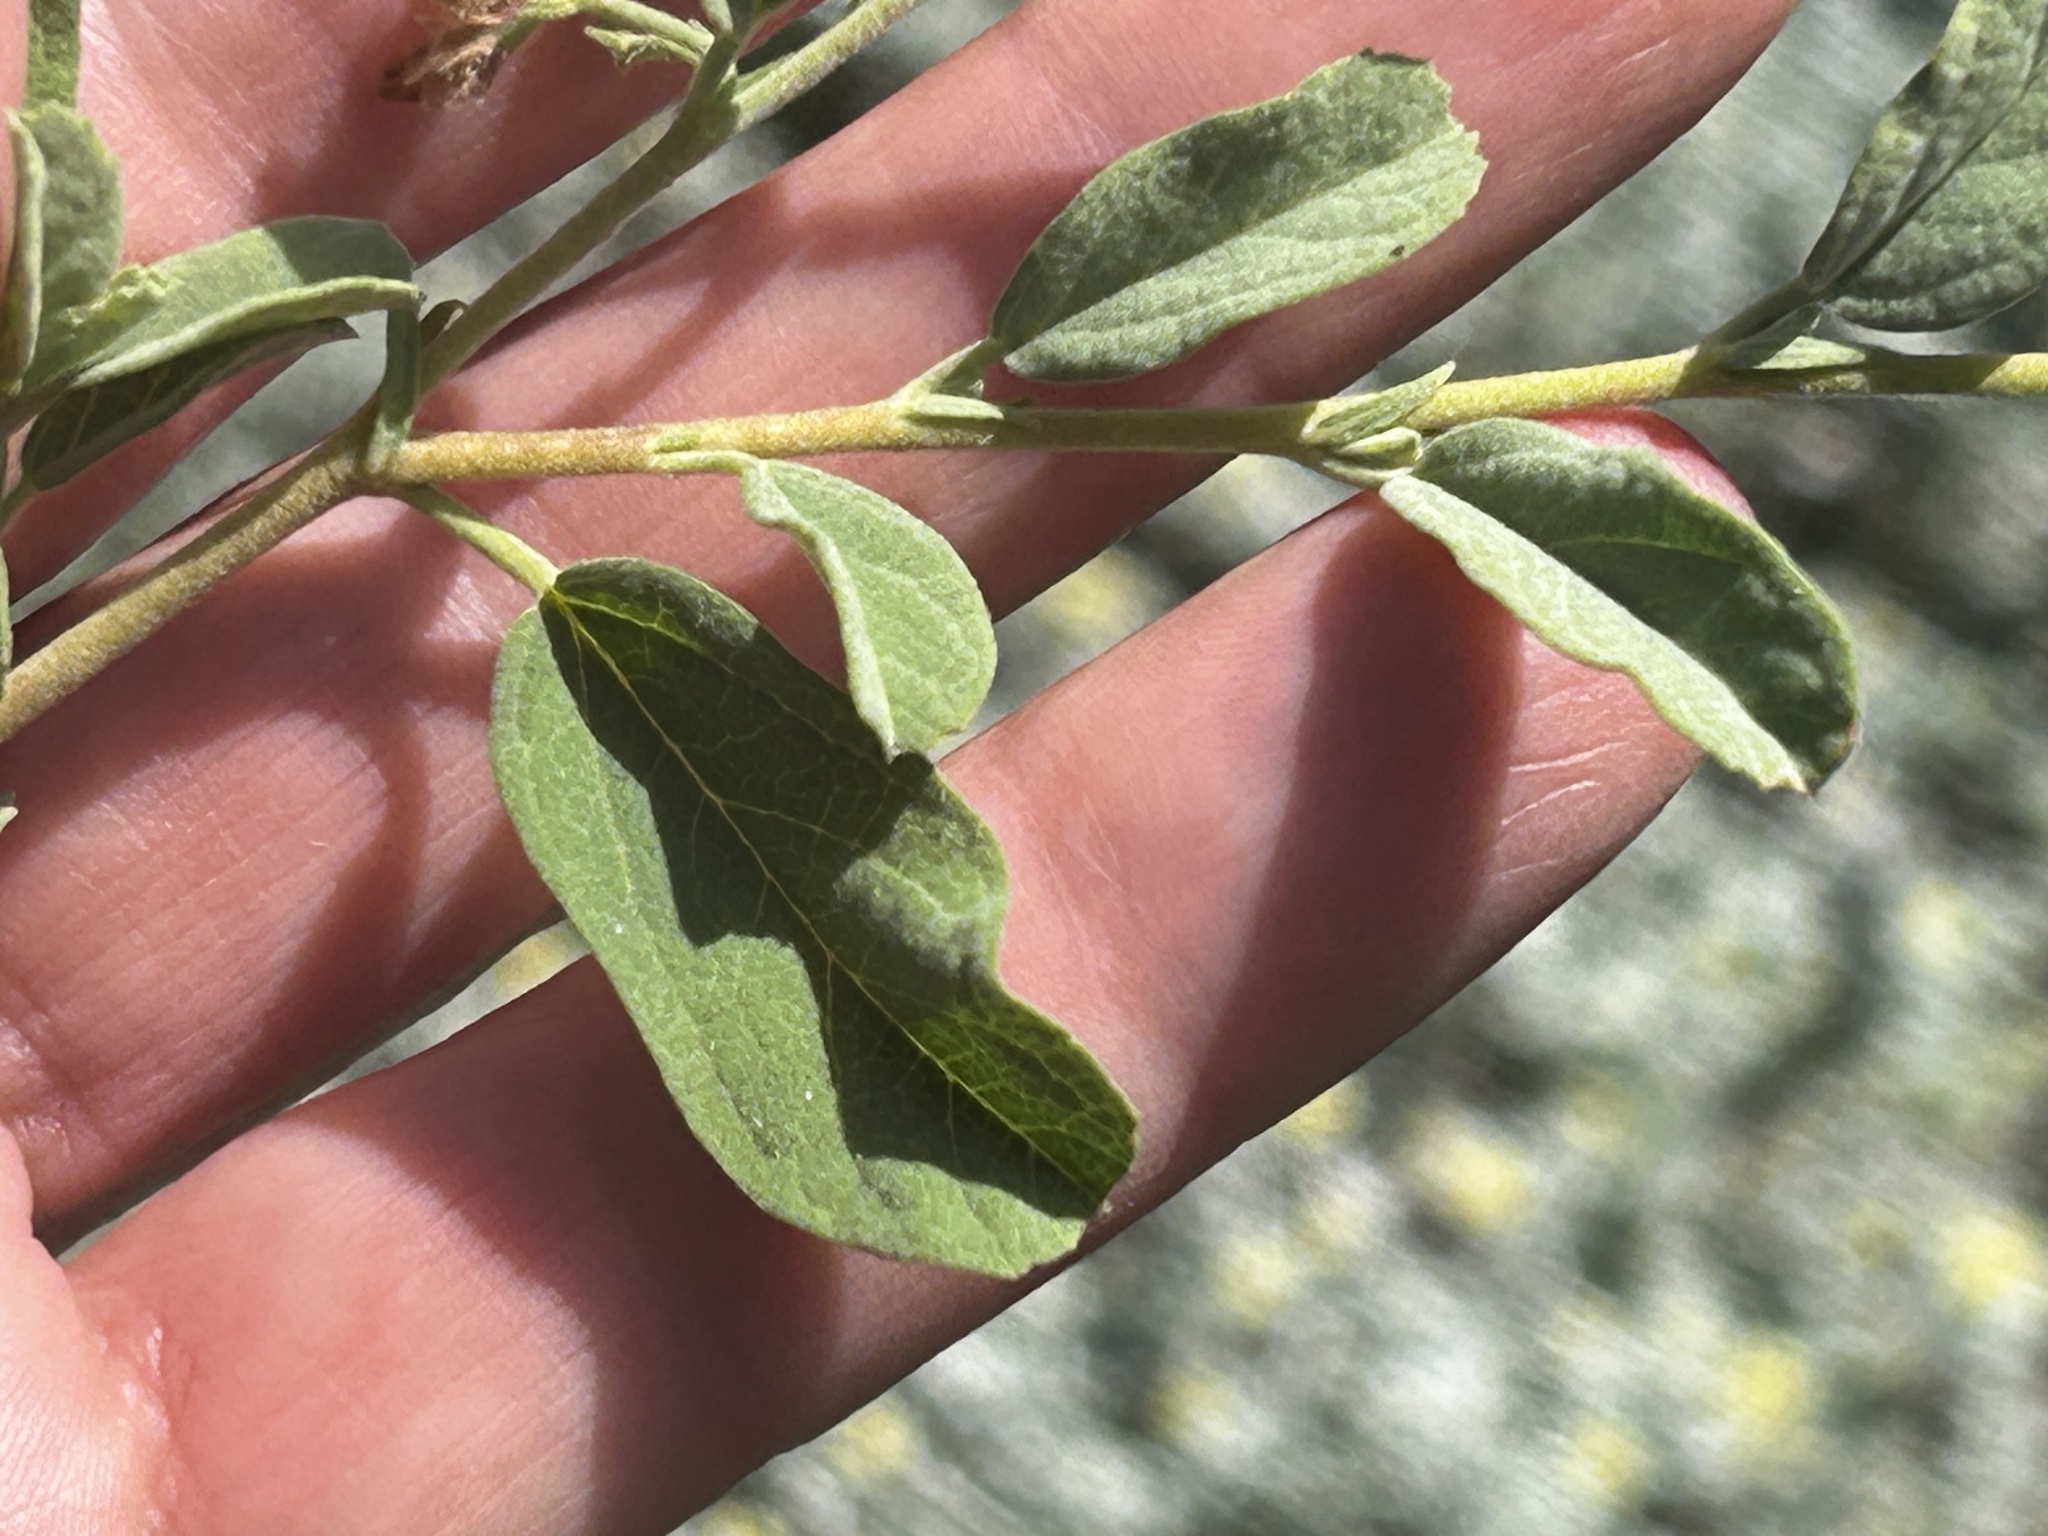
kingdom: Plantae
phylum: Tracheophyta
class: Magnoliopsida
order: Malvales
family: Malvaceae
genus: Hermannia
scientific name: Hermannia holosericea
